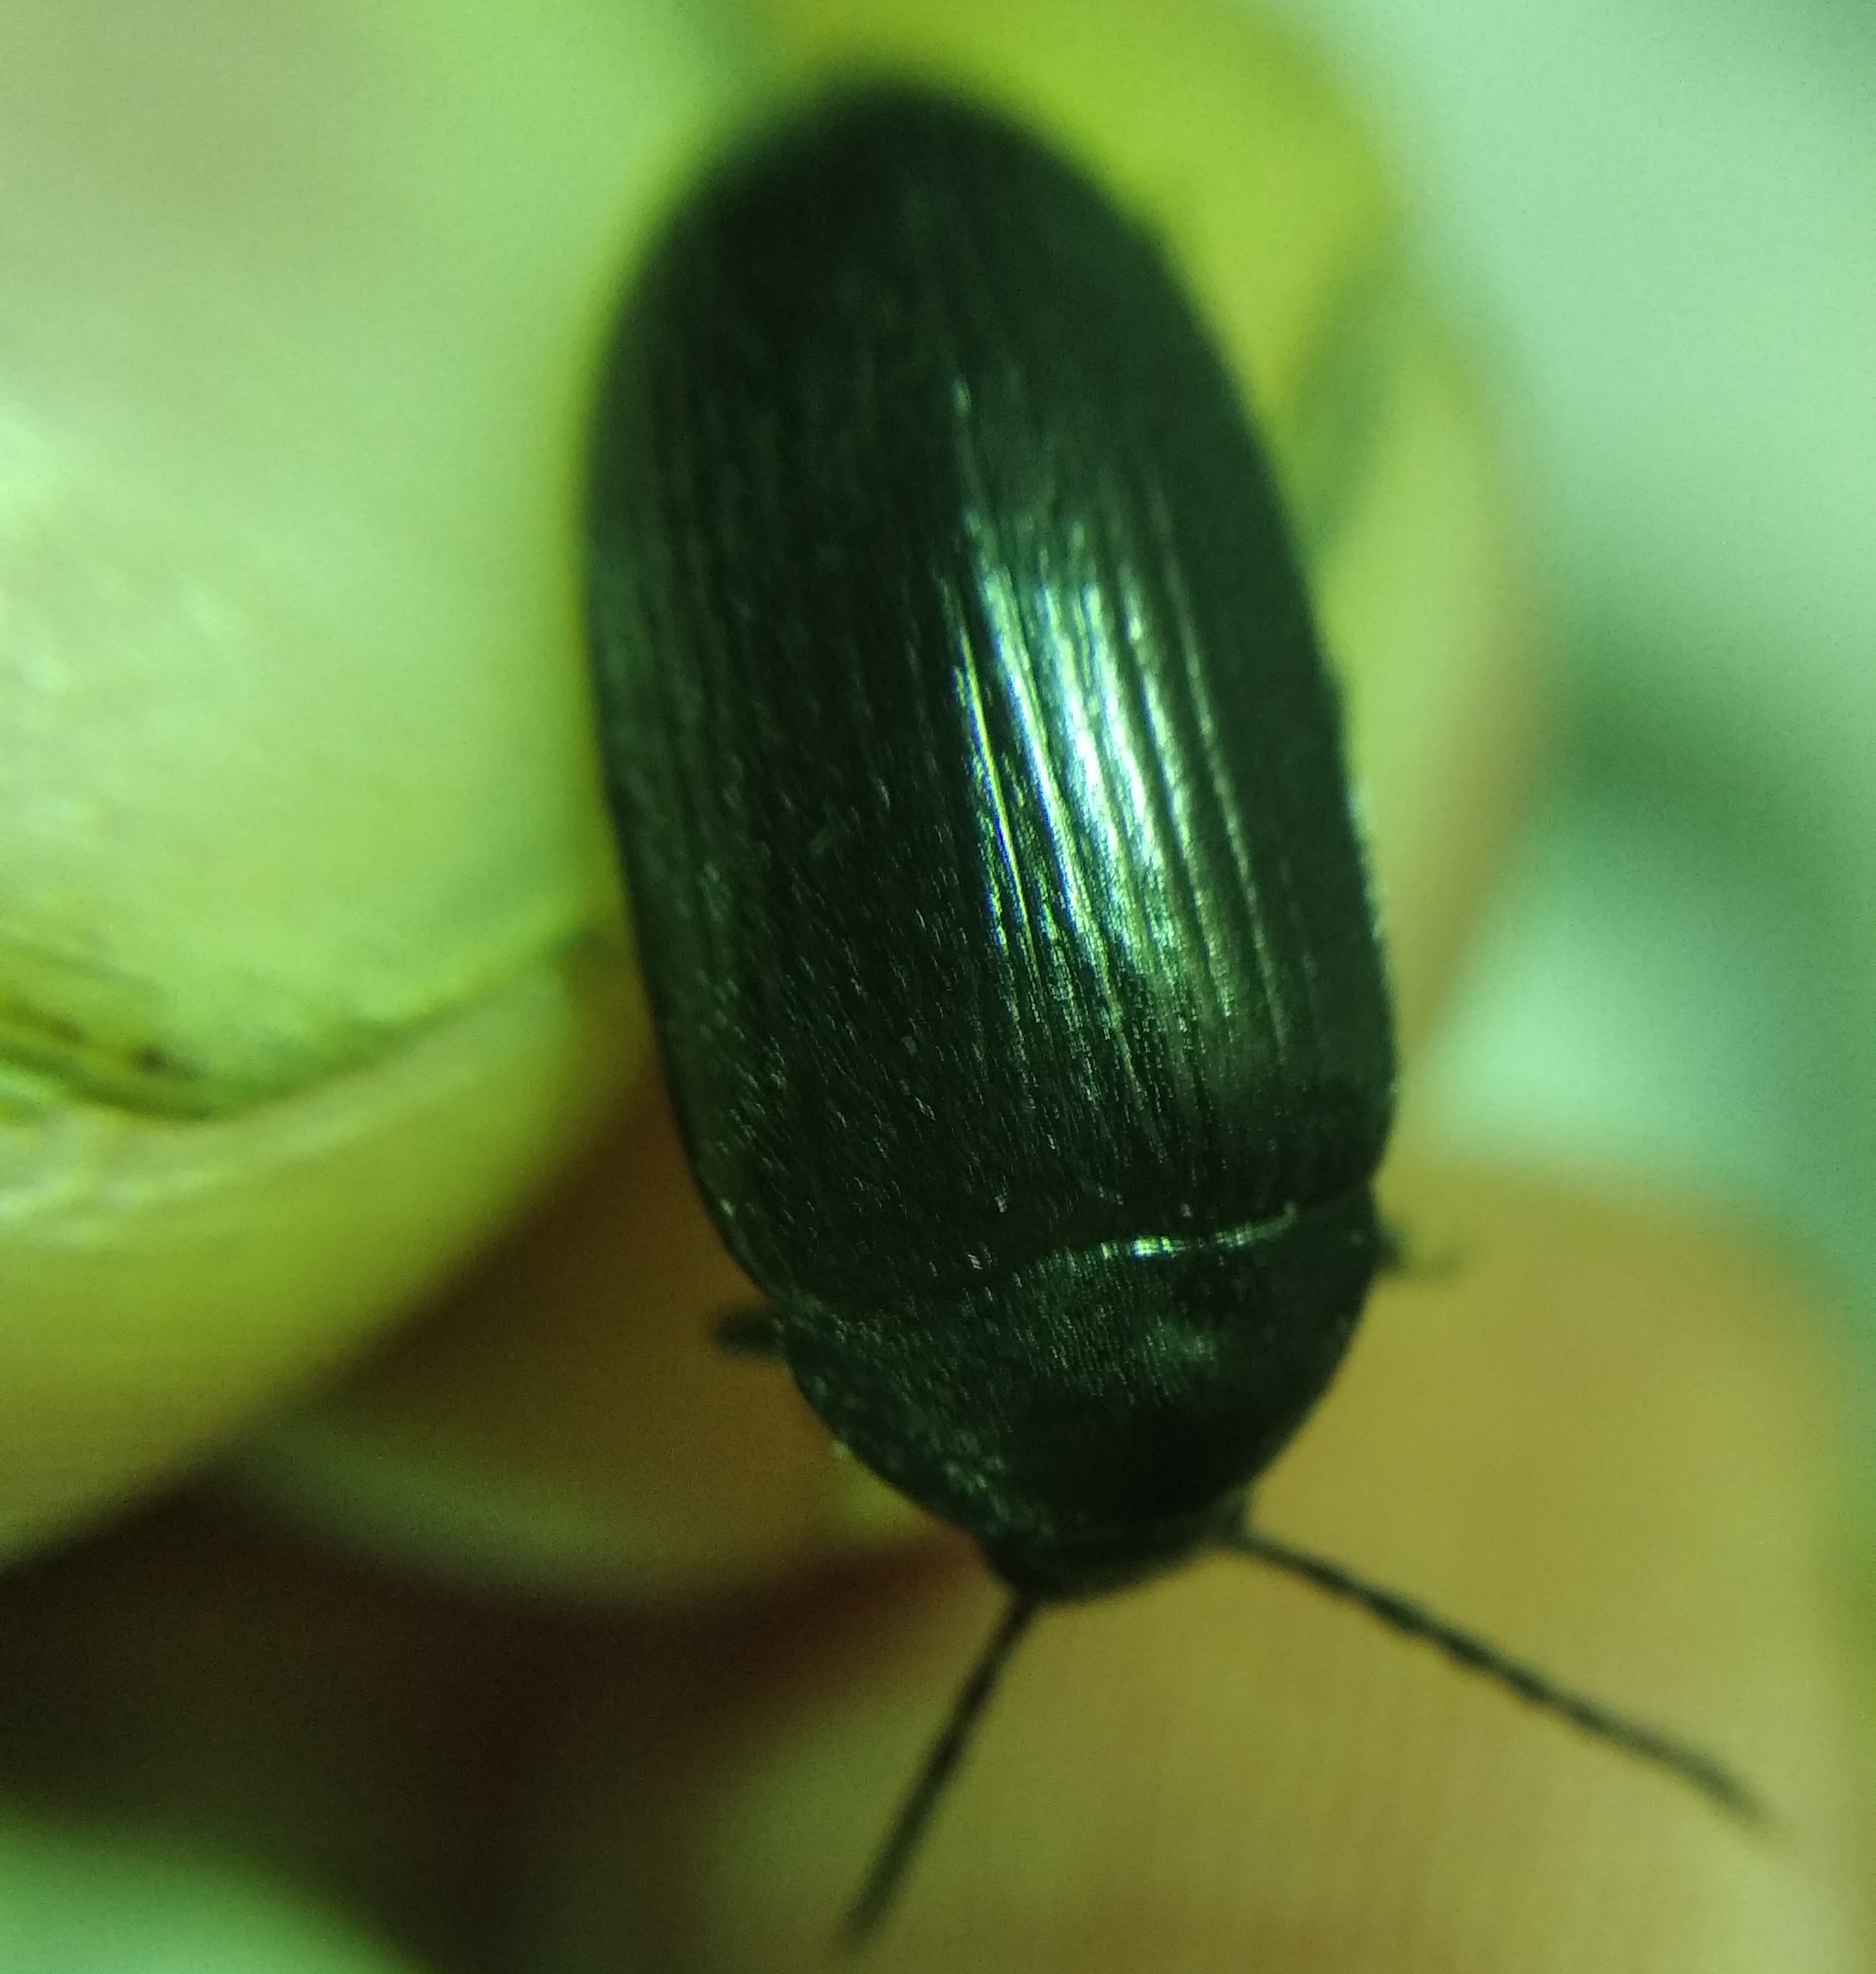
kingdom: Animalia
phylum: Arthropoda
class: Insecta
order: Coleoptera
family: Tenebrionidae
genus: Prionychus
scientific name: Prionychus ater
